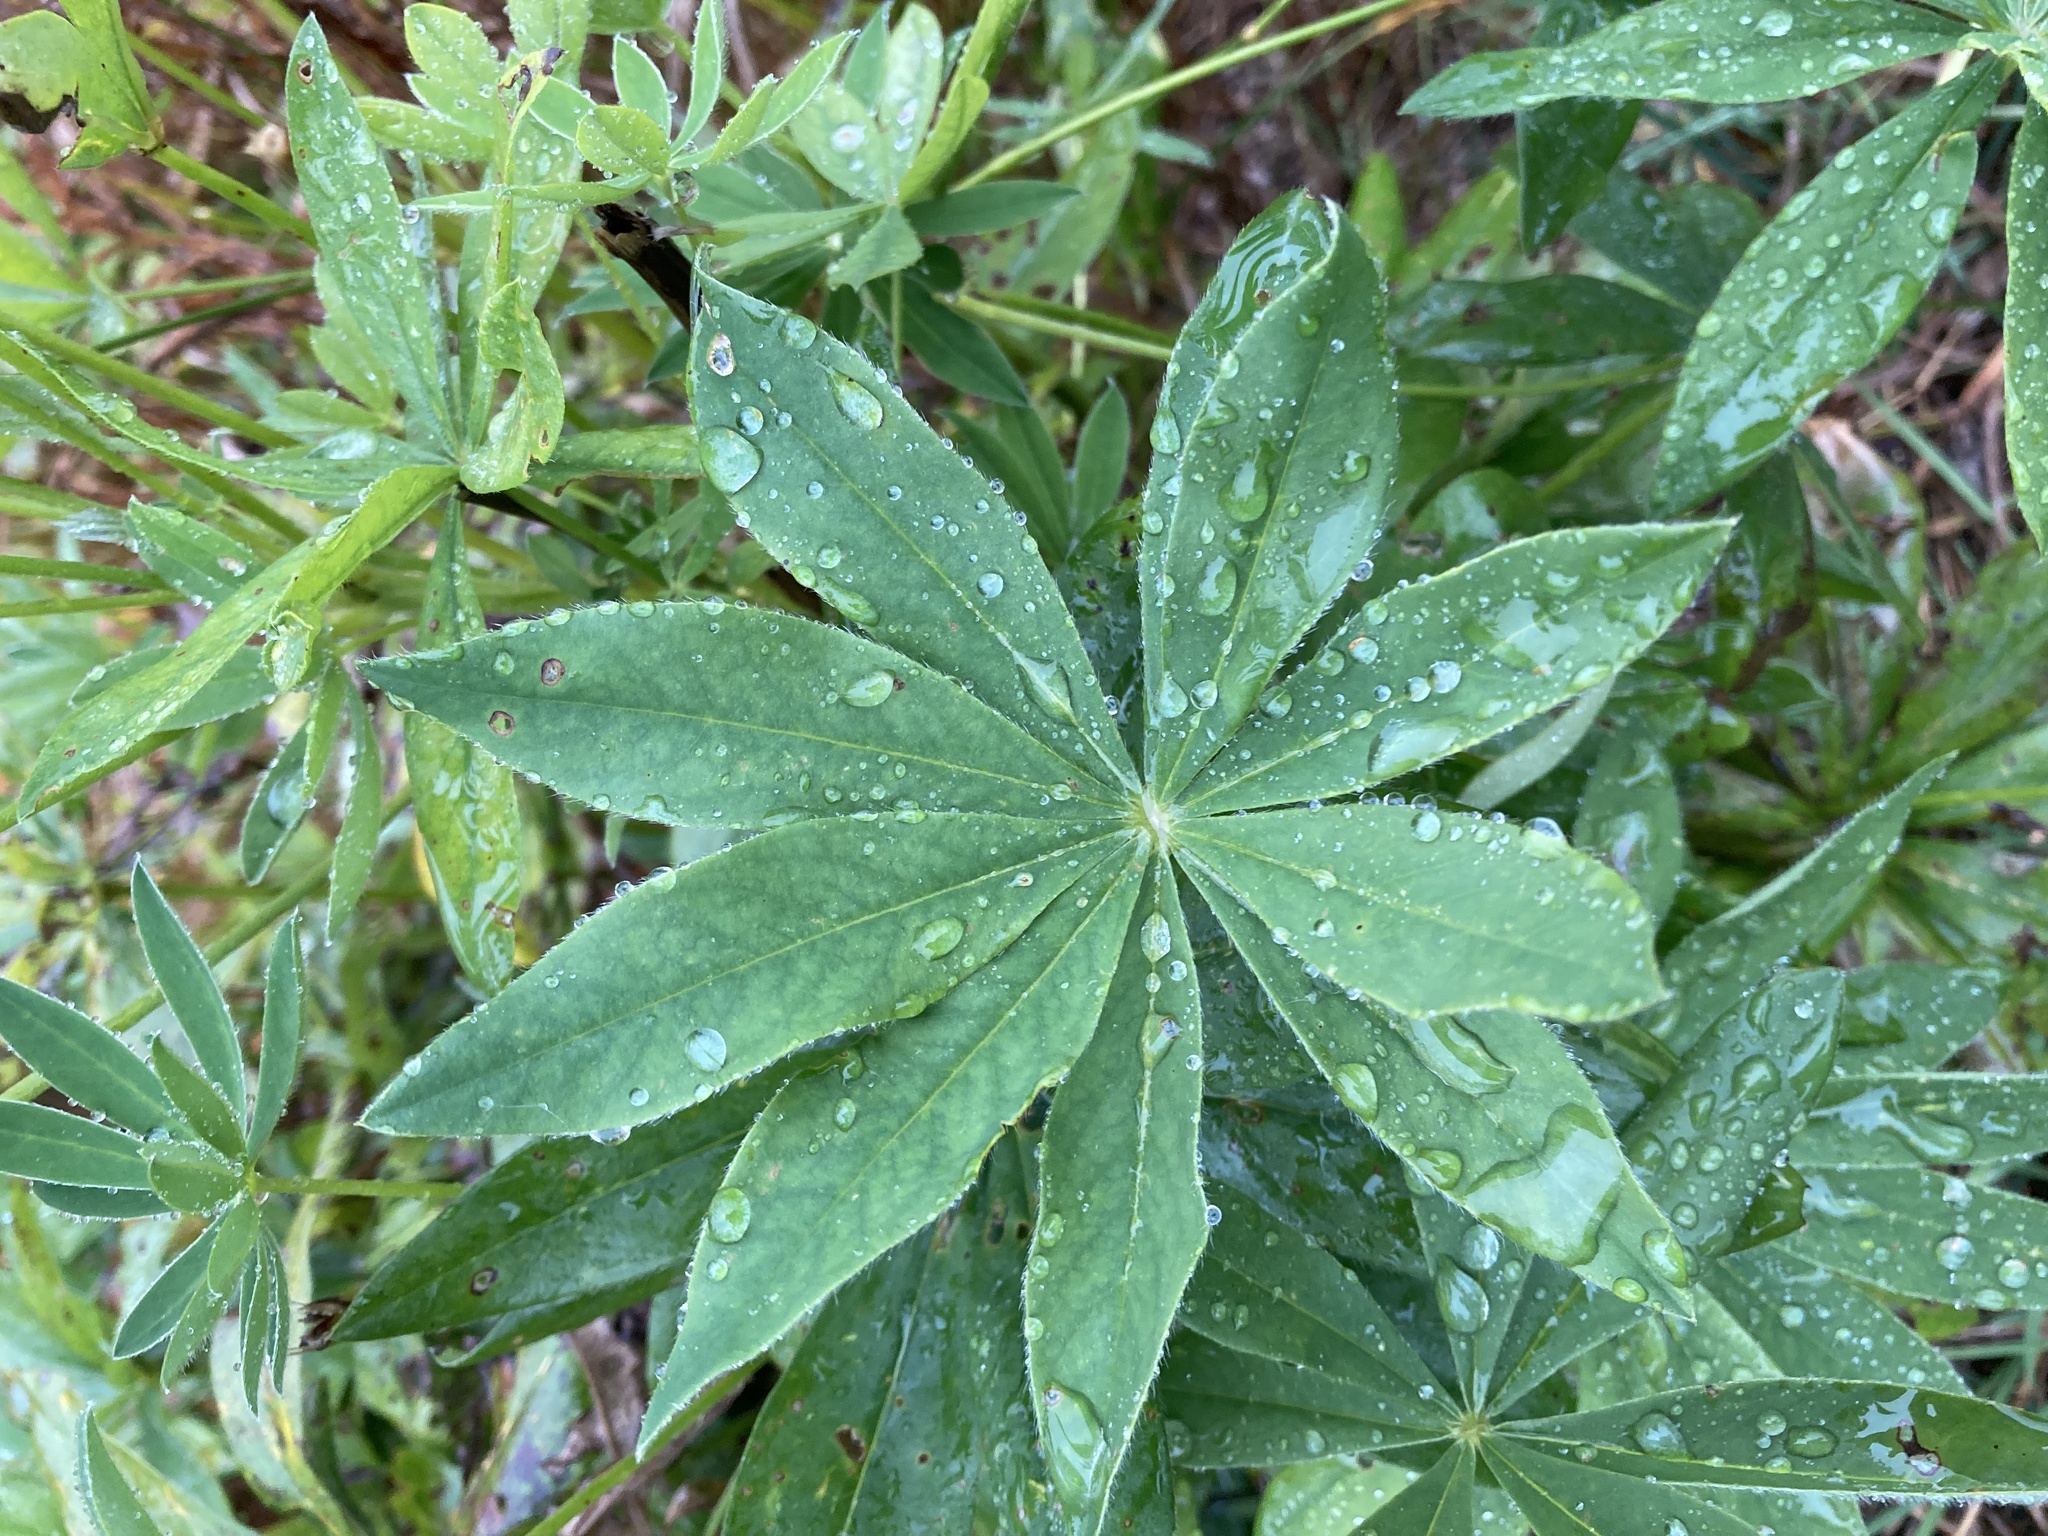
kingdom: Plantae
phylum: Tracheophyta
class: Magnoliopsida
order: Fabales
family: Fabaceae
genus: Lupinus
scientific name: Lupinus polyphyllus
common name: Garden lupin
